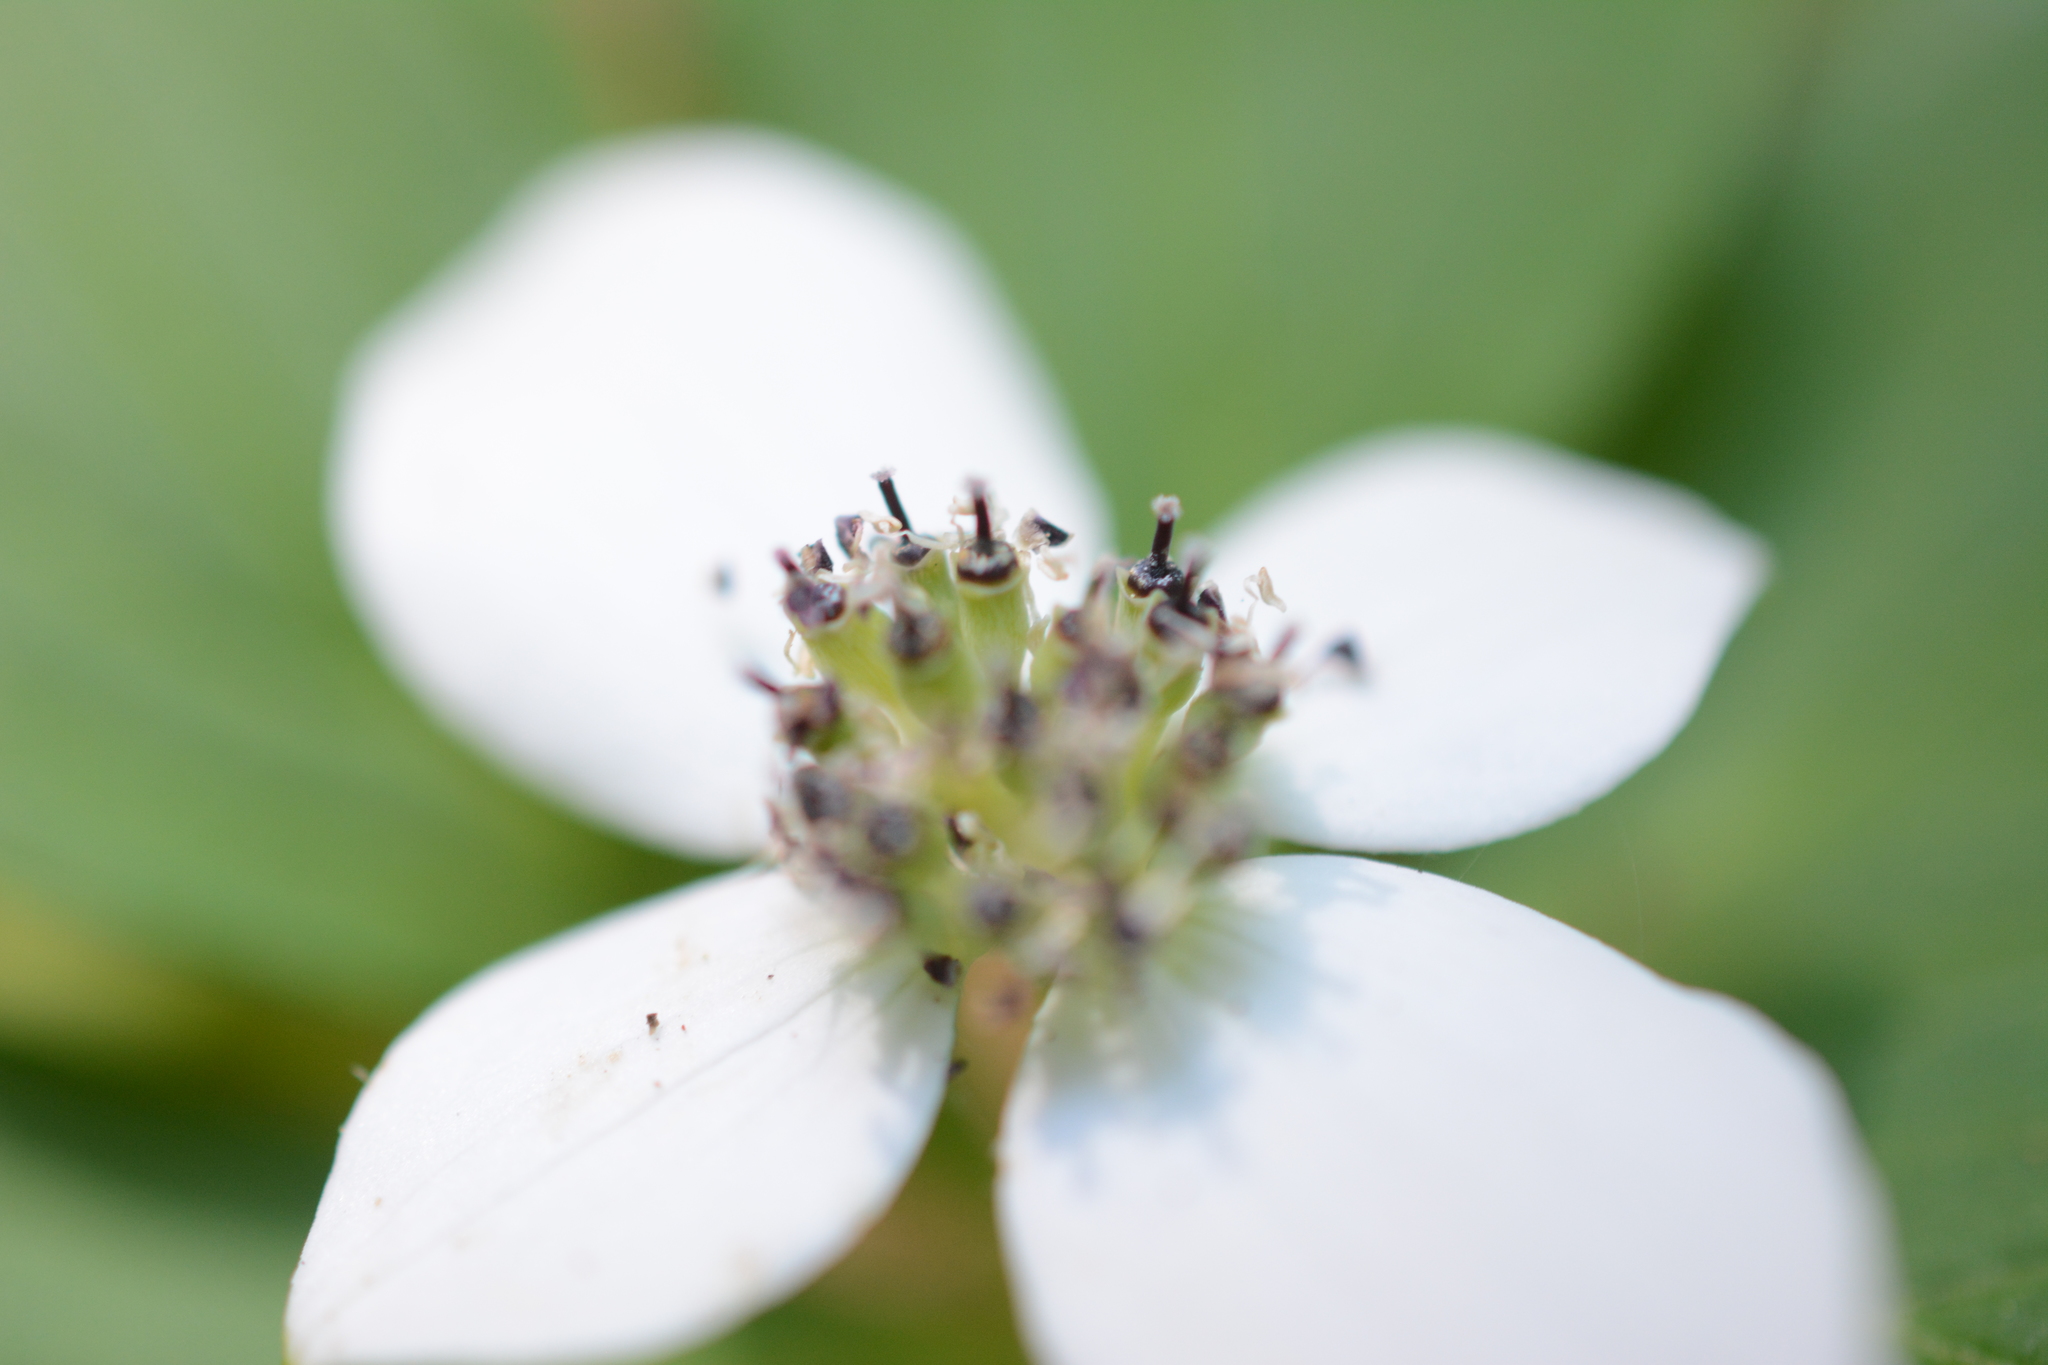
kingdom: Plantae
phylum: Tracheophyta
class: Magnoliopsida
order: Cornales
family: Cornaceae
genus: Cornus
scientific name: Cornus unalaschkensis
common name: Alaska bunchberry
